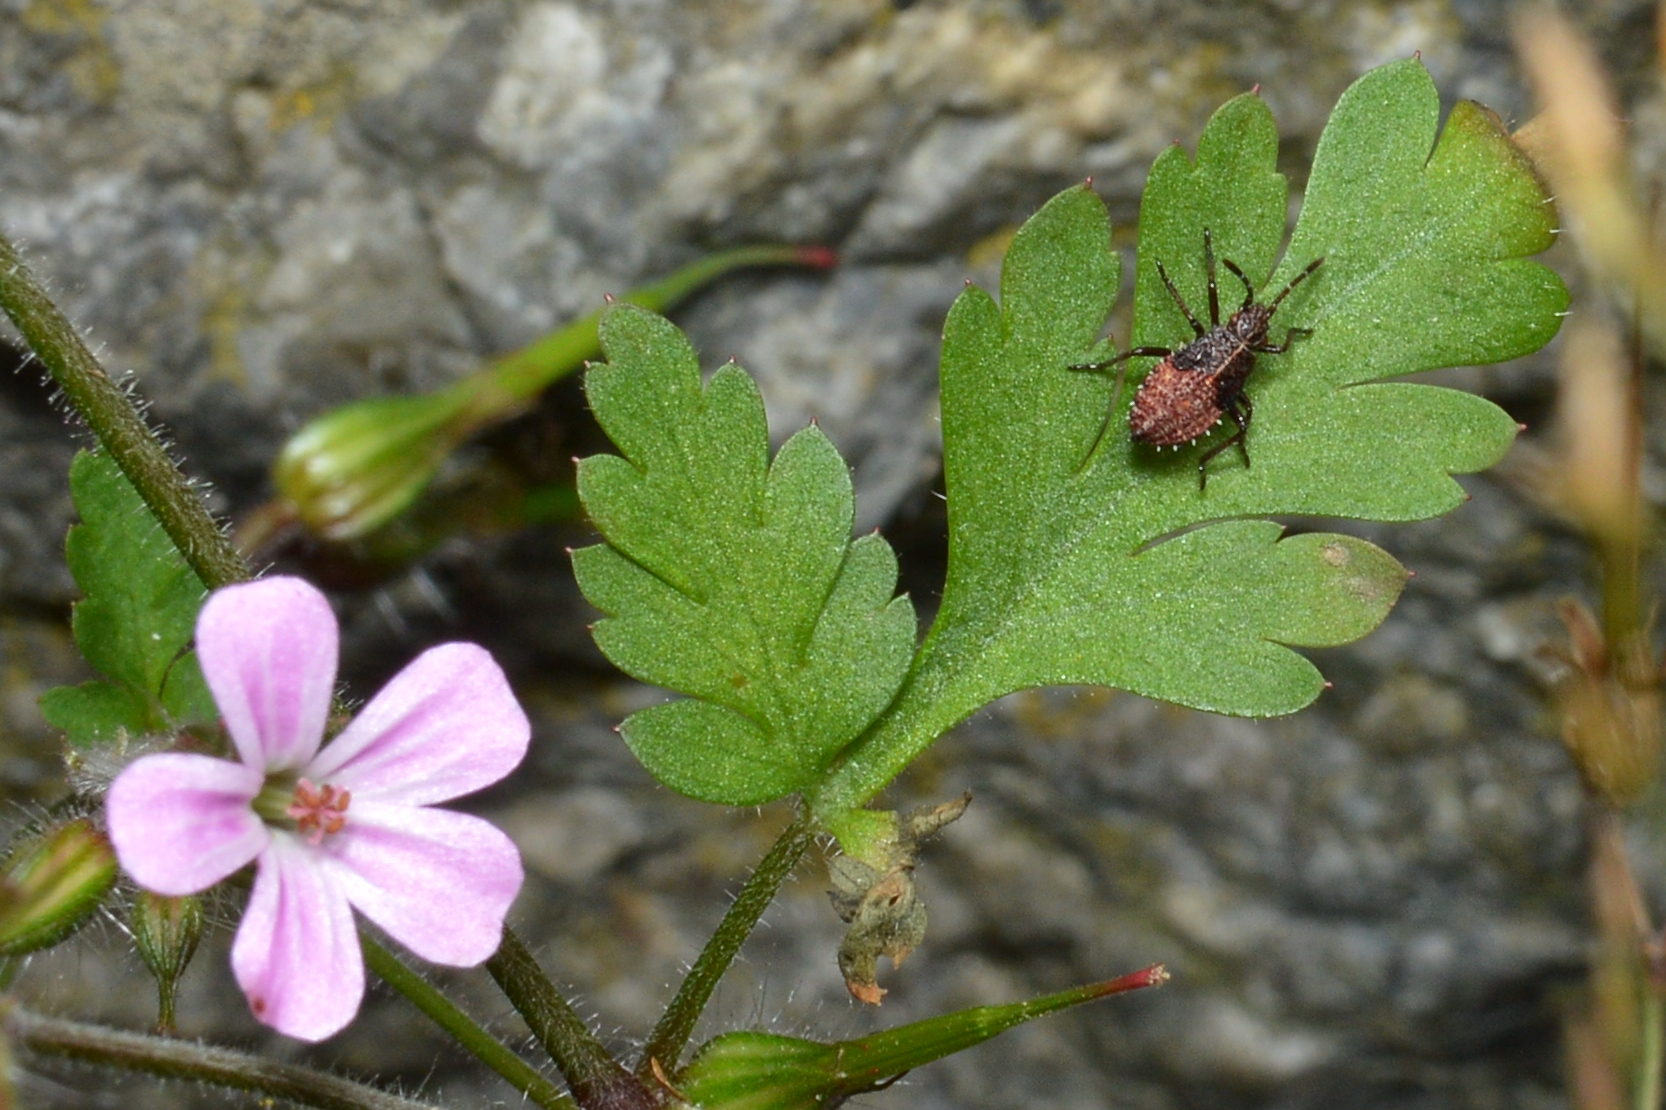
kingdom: Plantae
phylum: Tracheophyta
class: Magnoliopsida
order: Geraniales
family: Geraniaceae
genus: Geranium
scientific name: Geranium robertianum
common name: Herb-robert
